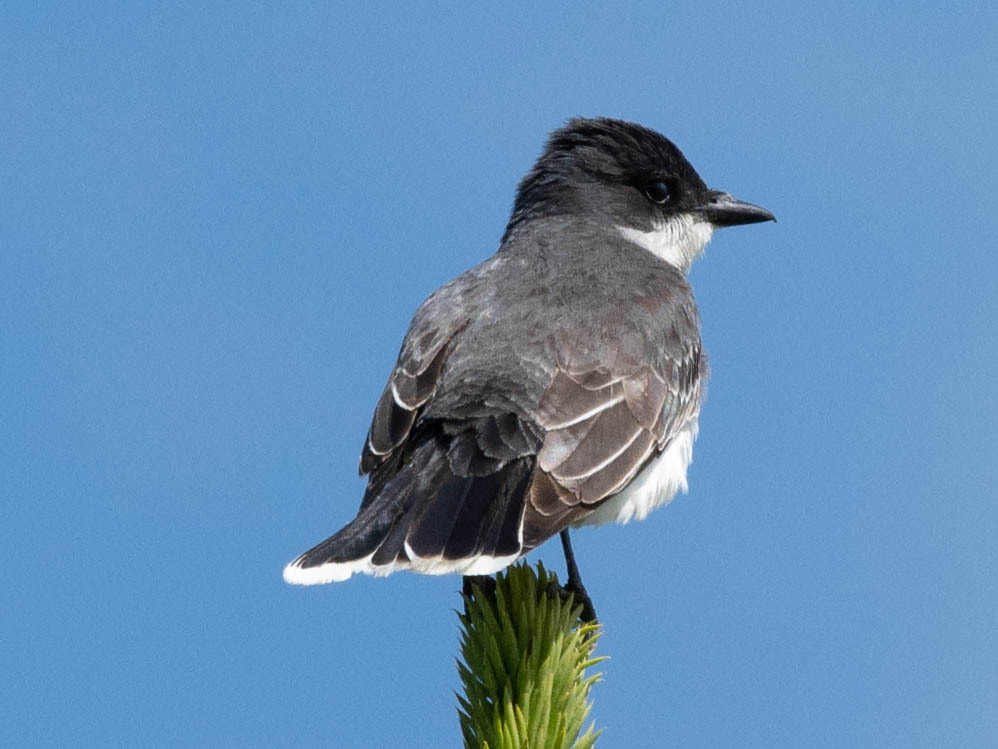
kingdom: Animalia
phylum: Chordata
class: Aves
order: Passeriformes
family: Tyrannidae
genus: Tyrannus
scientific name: Tyrannus tyrannus
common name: Eastern kingbird
